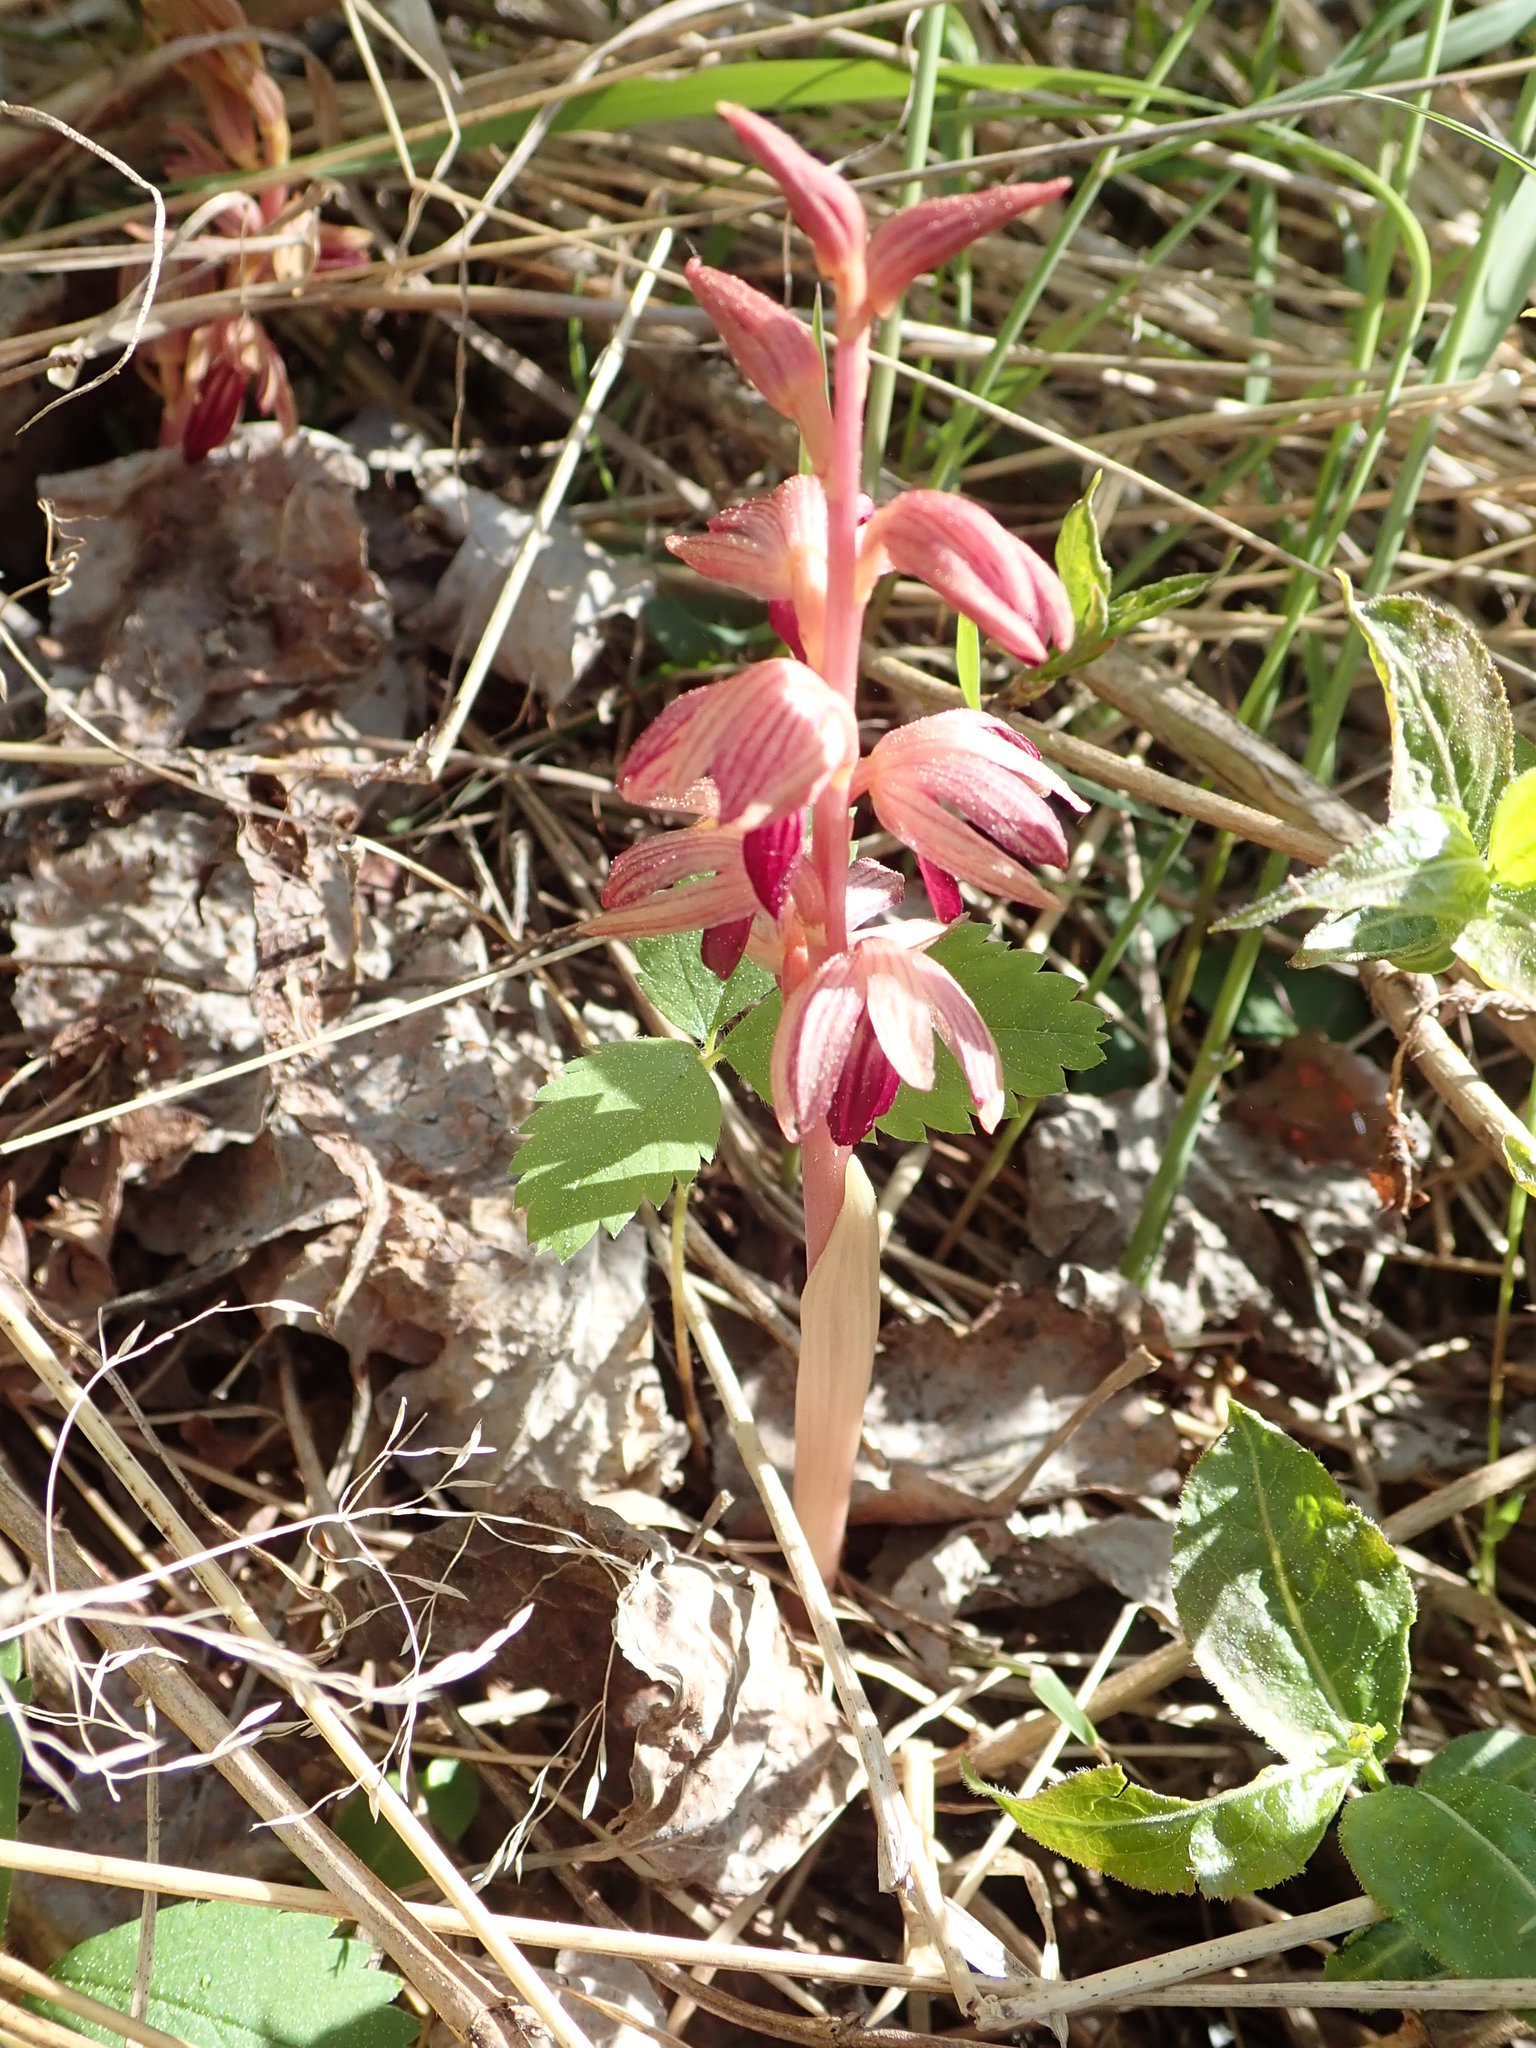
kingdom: Plantae
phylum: Tracheophyta
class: Liliopsida
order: Asparagales
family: Orchidaceae
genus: Corallorhiza
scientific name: Corallorhiza striata
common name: Hooded coralroot
